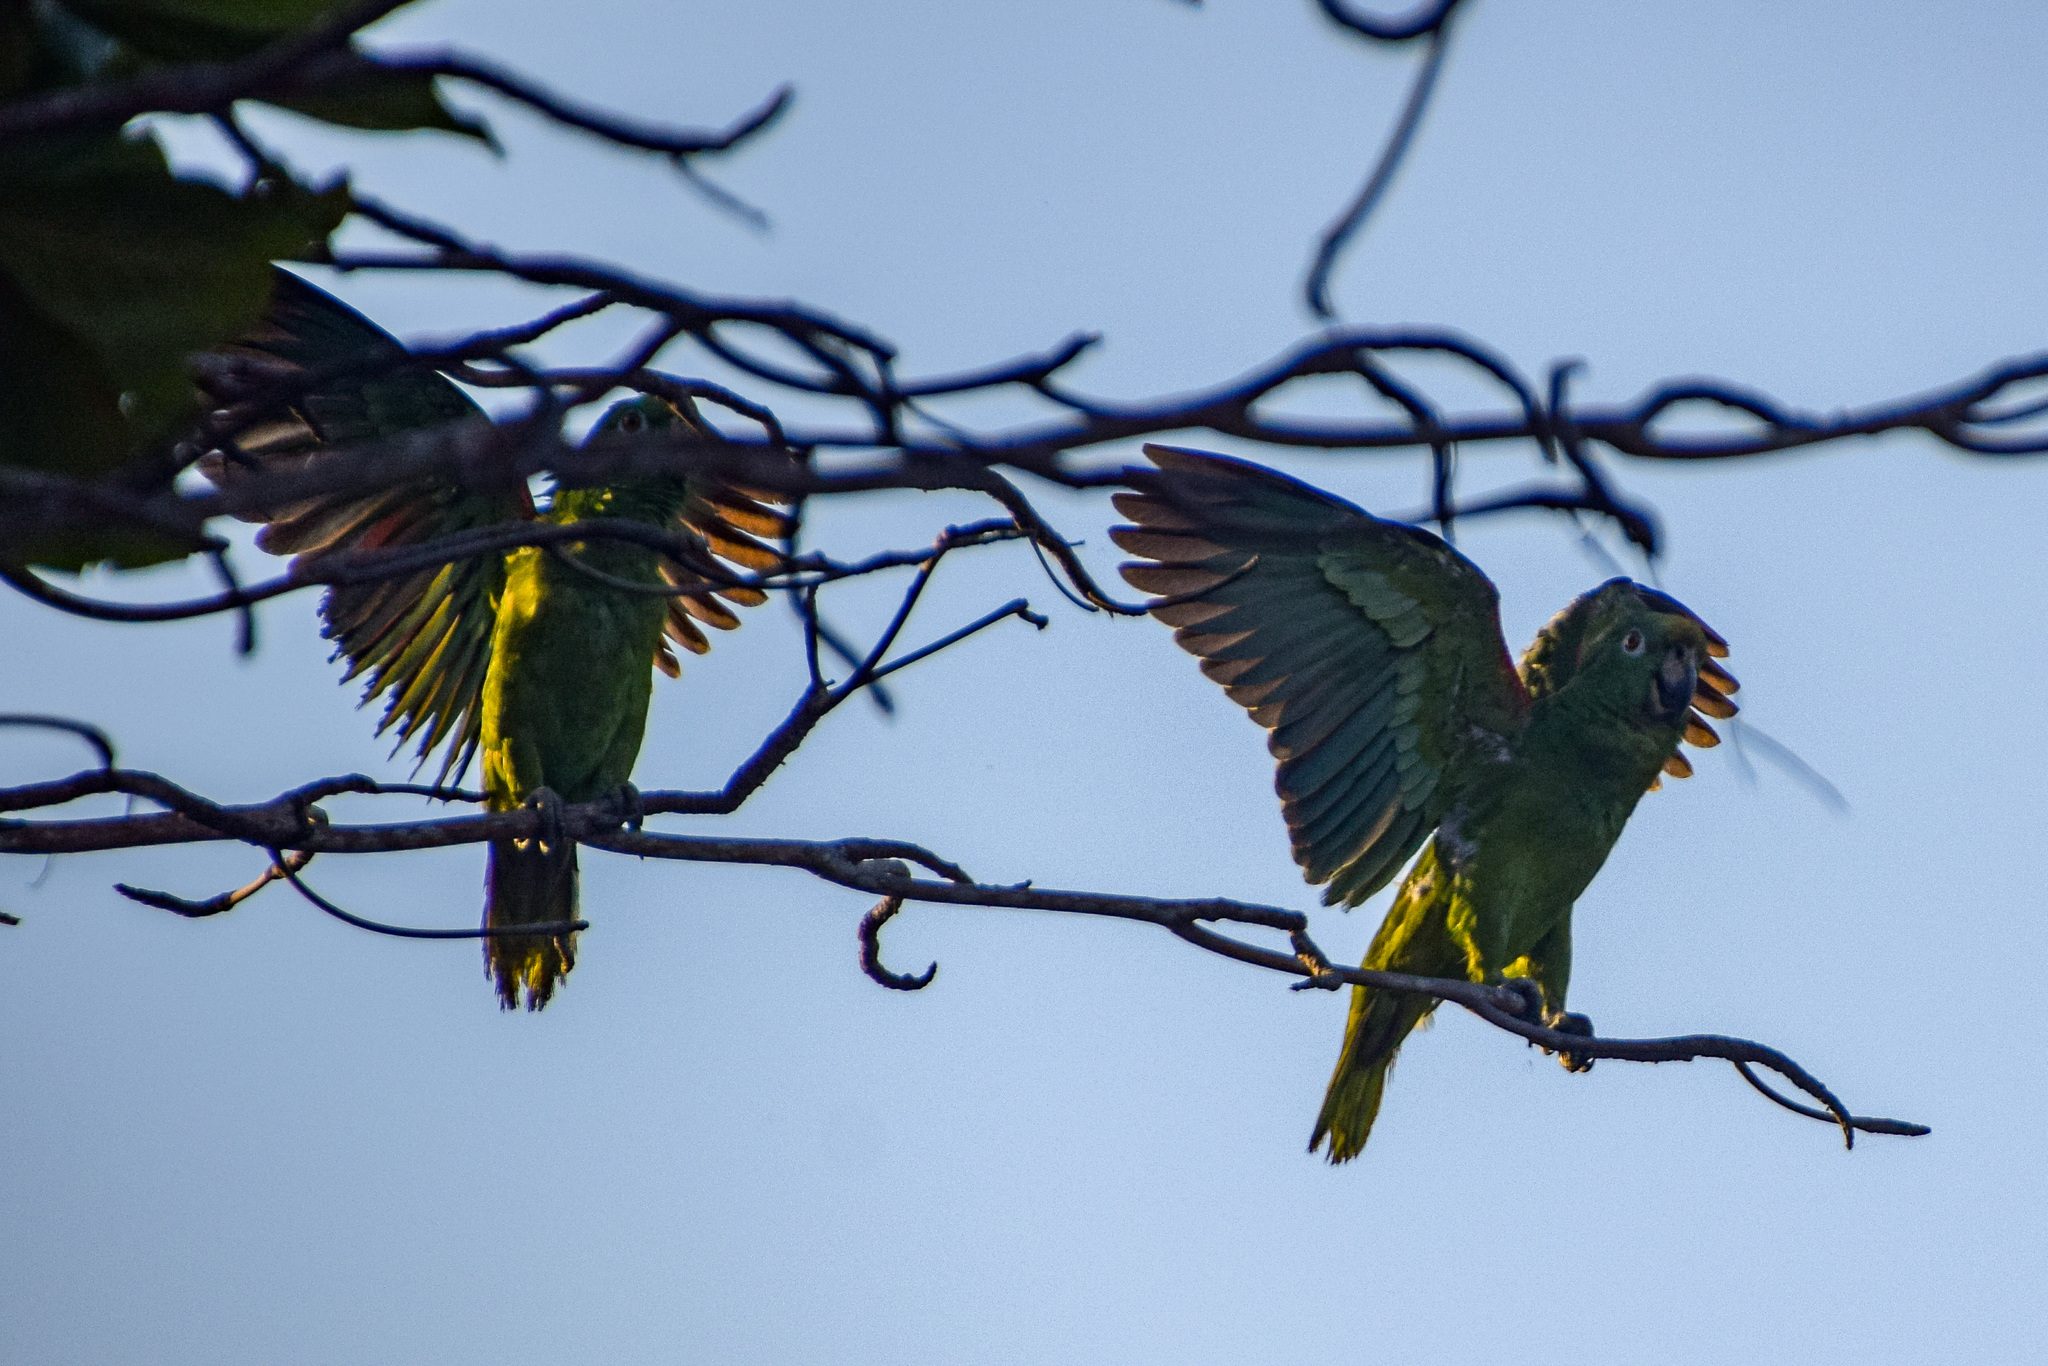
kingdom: Animalia
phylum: Chordata
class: Aves
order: Psittaciformes
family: Psittacidae
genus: Amazona
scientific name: Amazona ochrocephala
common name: Yellow-crowned amazon
